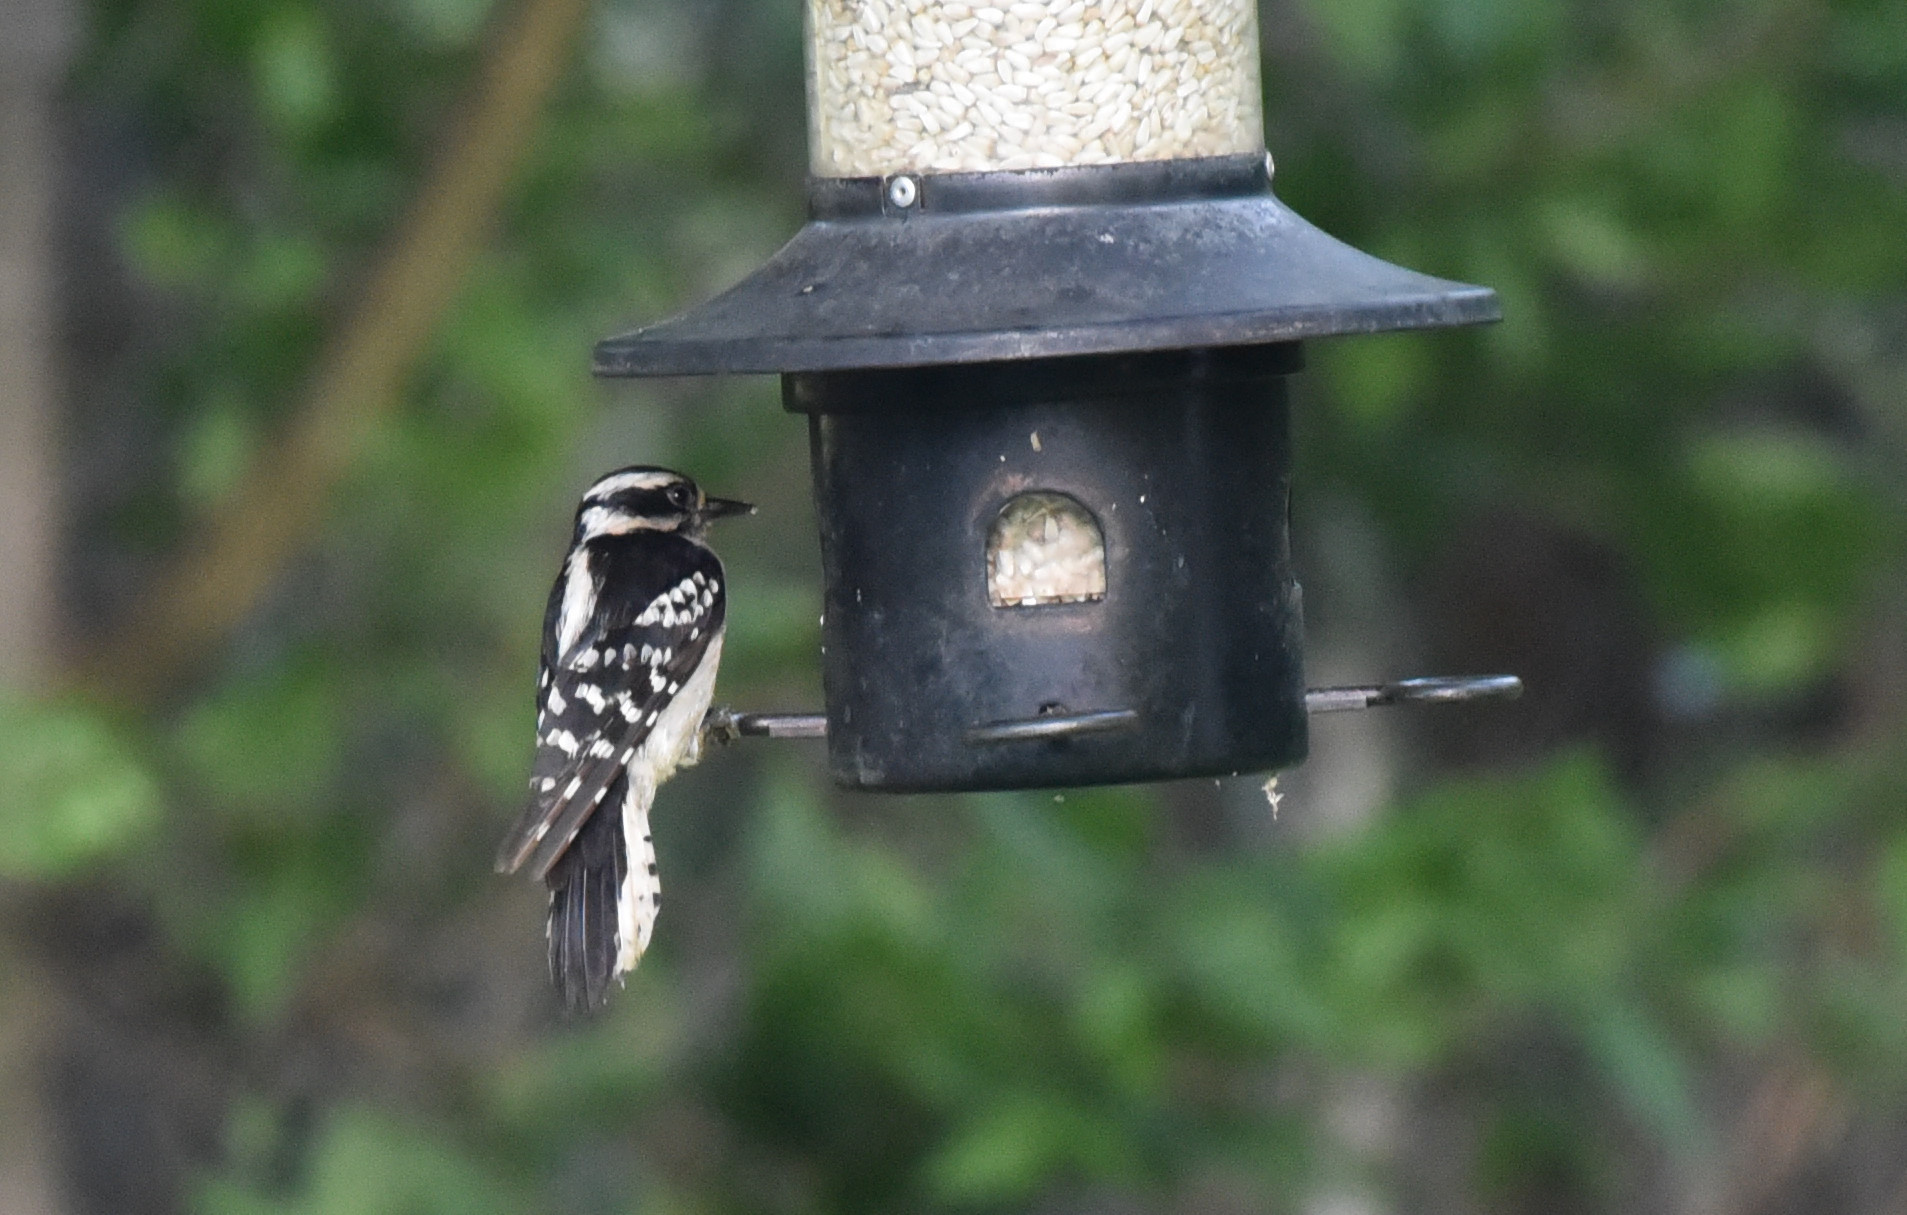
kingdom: Animalia
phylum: Chordata
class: Aves
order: Piciformes
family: Picidae
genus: Dryobates
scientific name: Dryobates pubescens
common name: Downy woodpecker
